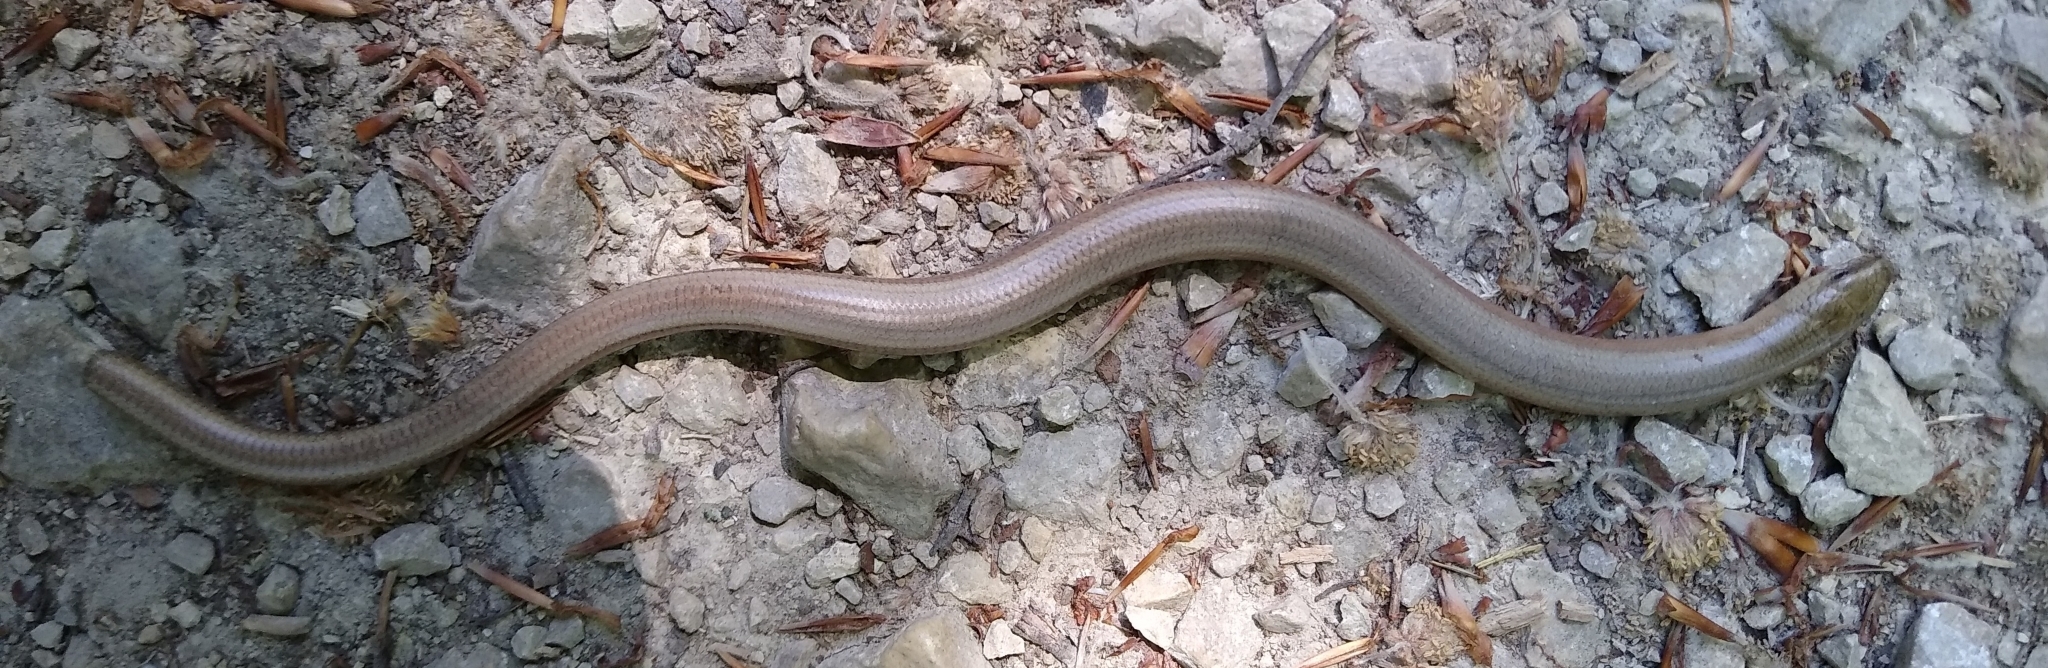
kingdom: Animalia
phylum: Chordata
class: Squamata
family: Anguidae
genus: Anguis
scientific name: Anguis fragilis
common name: Slow worm
